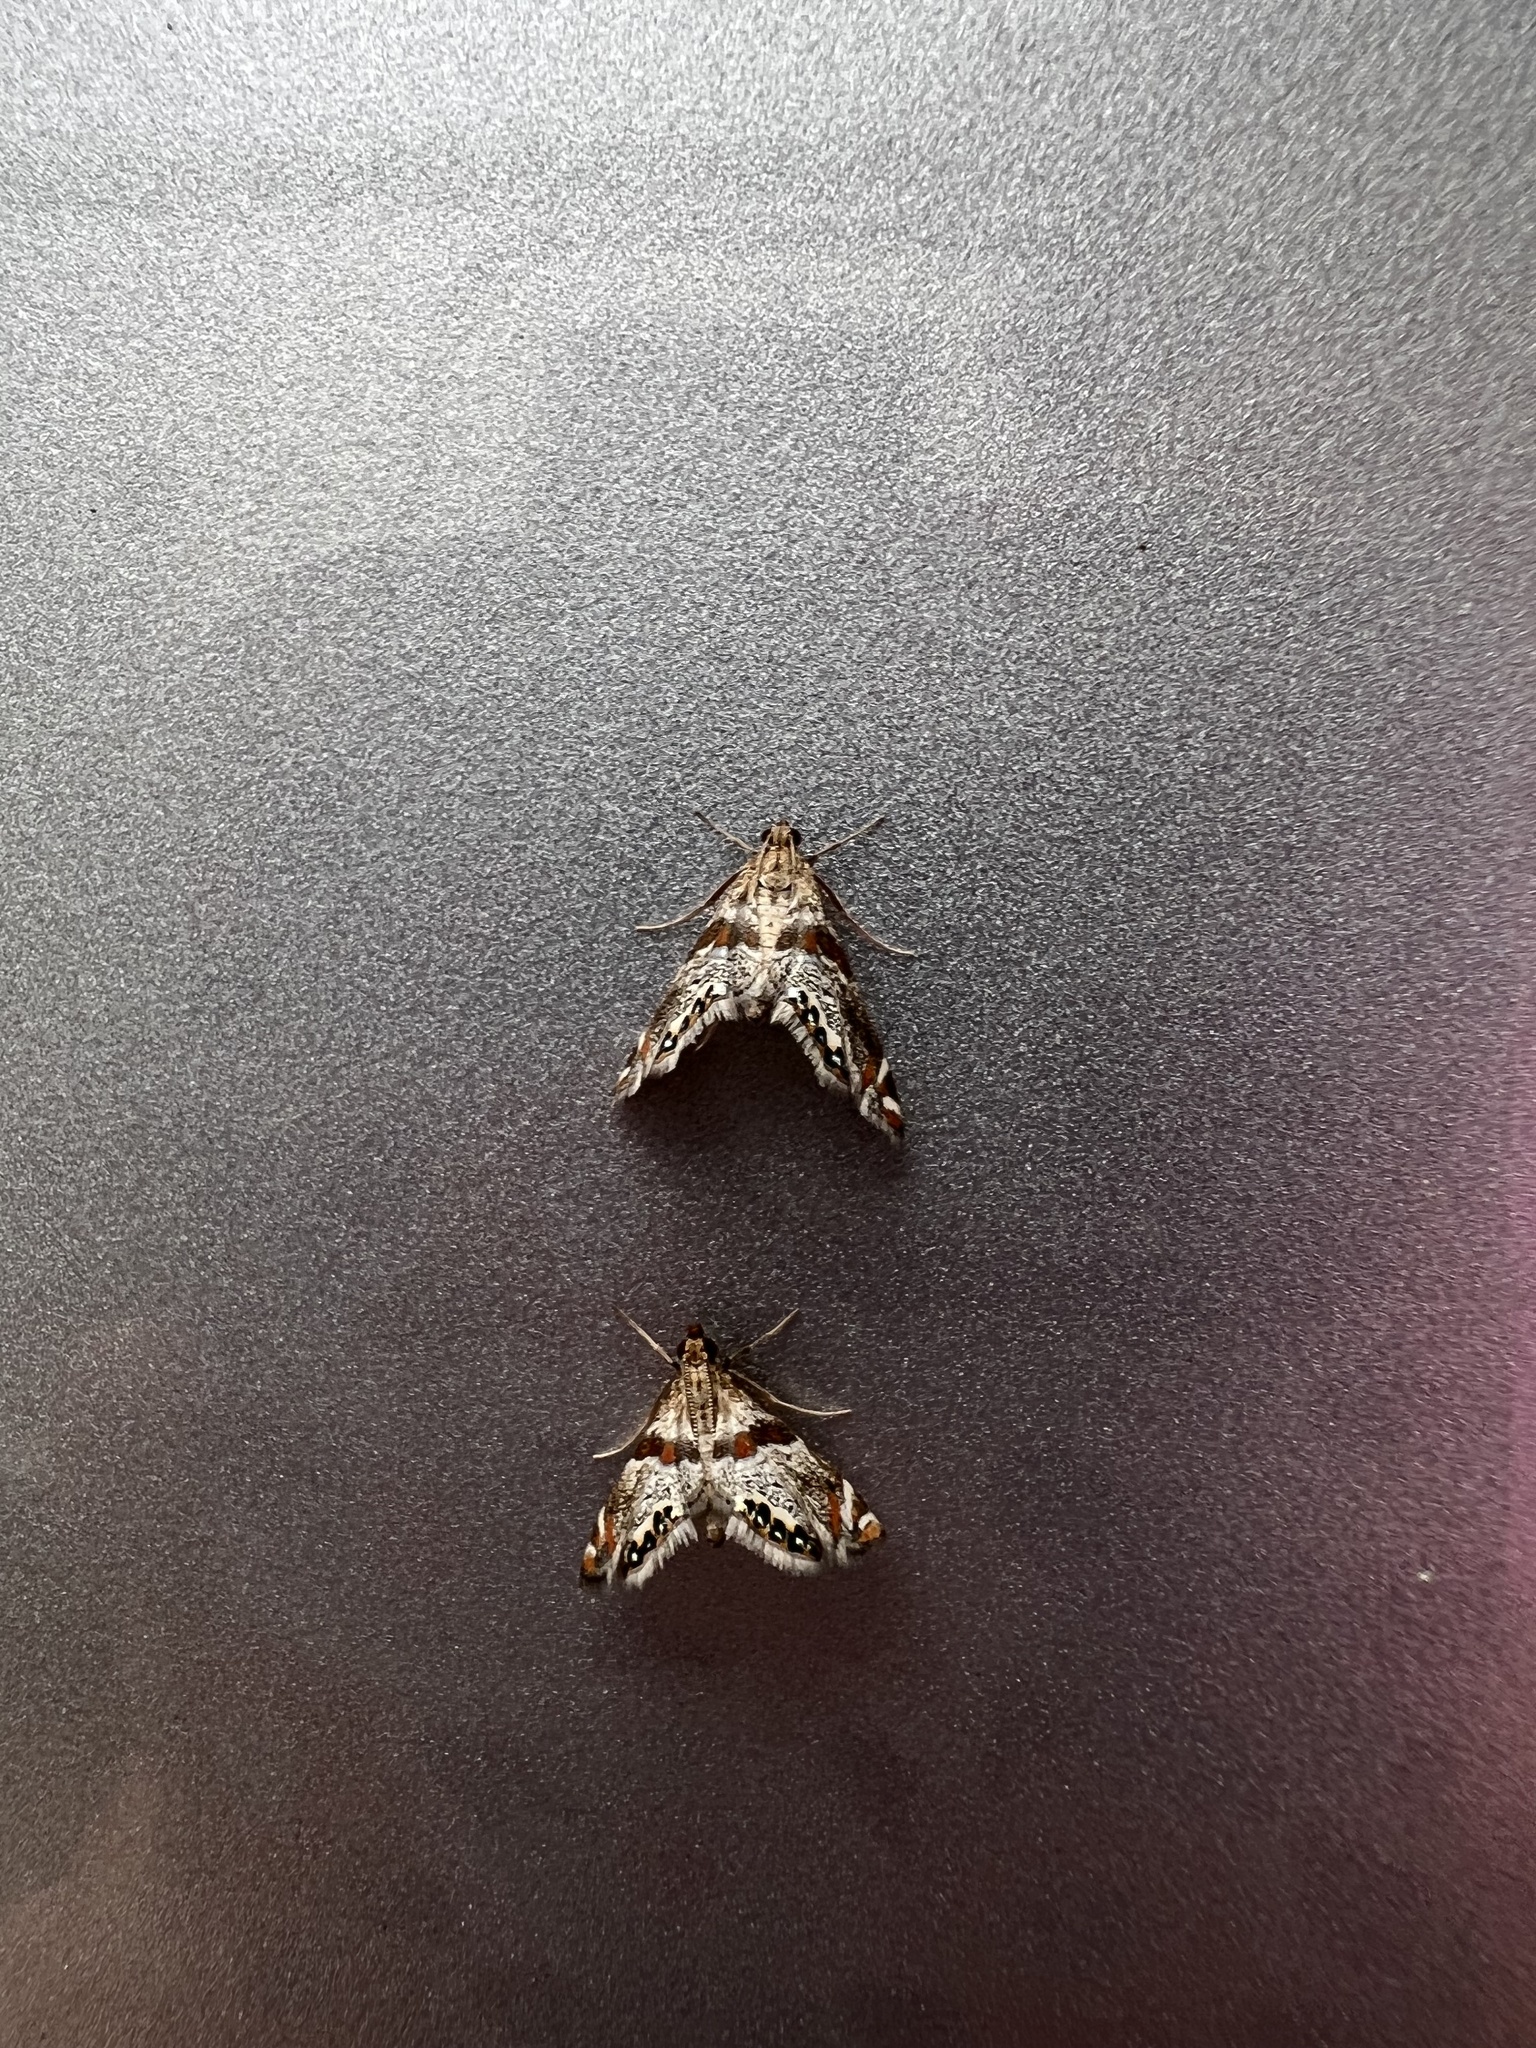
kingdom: Animalia
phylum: Arthropoda
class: Insecta
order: Lepidoptera
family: Crambidae
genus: Petrophila
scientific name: Petrophila jaliscalis
